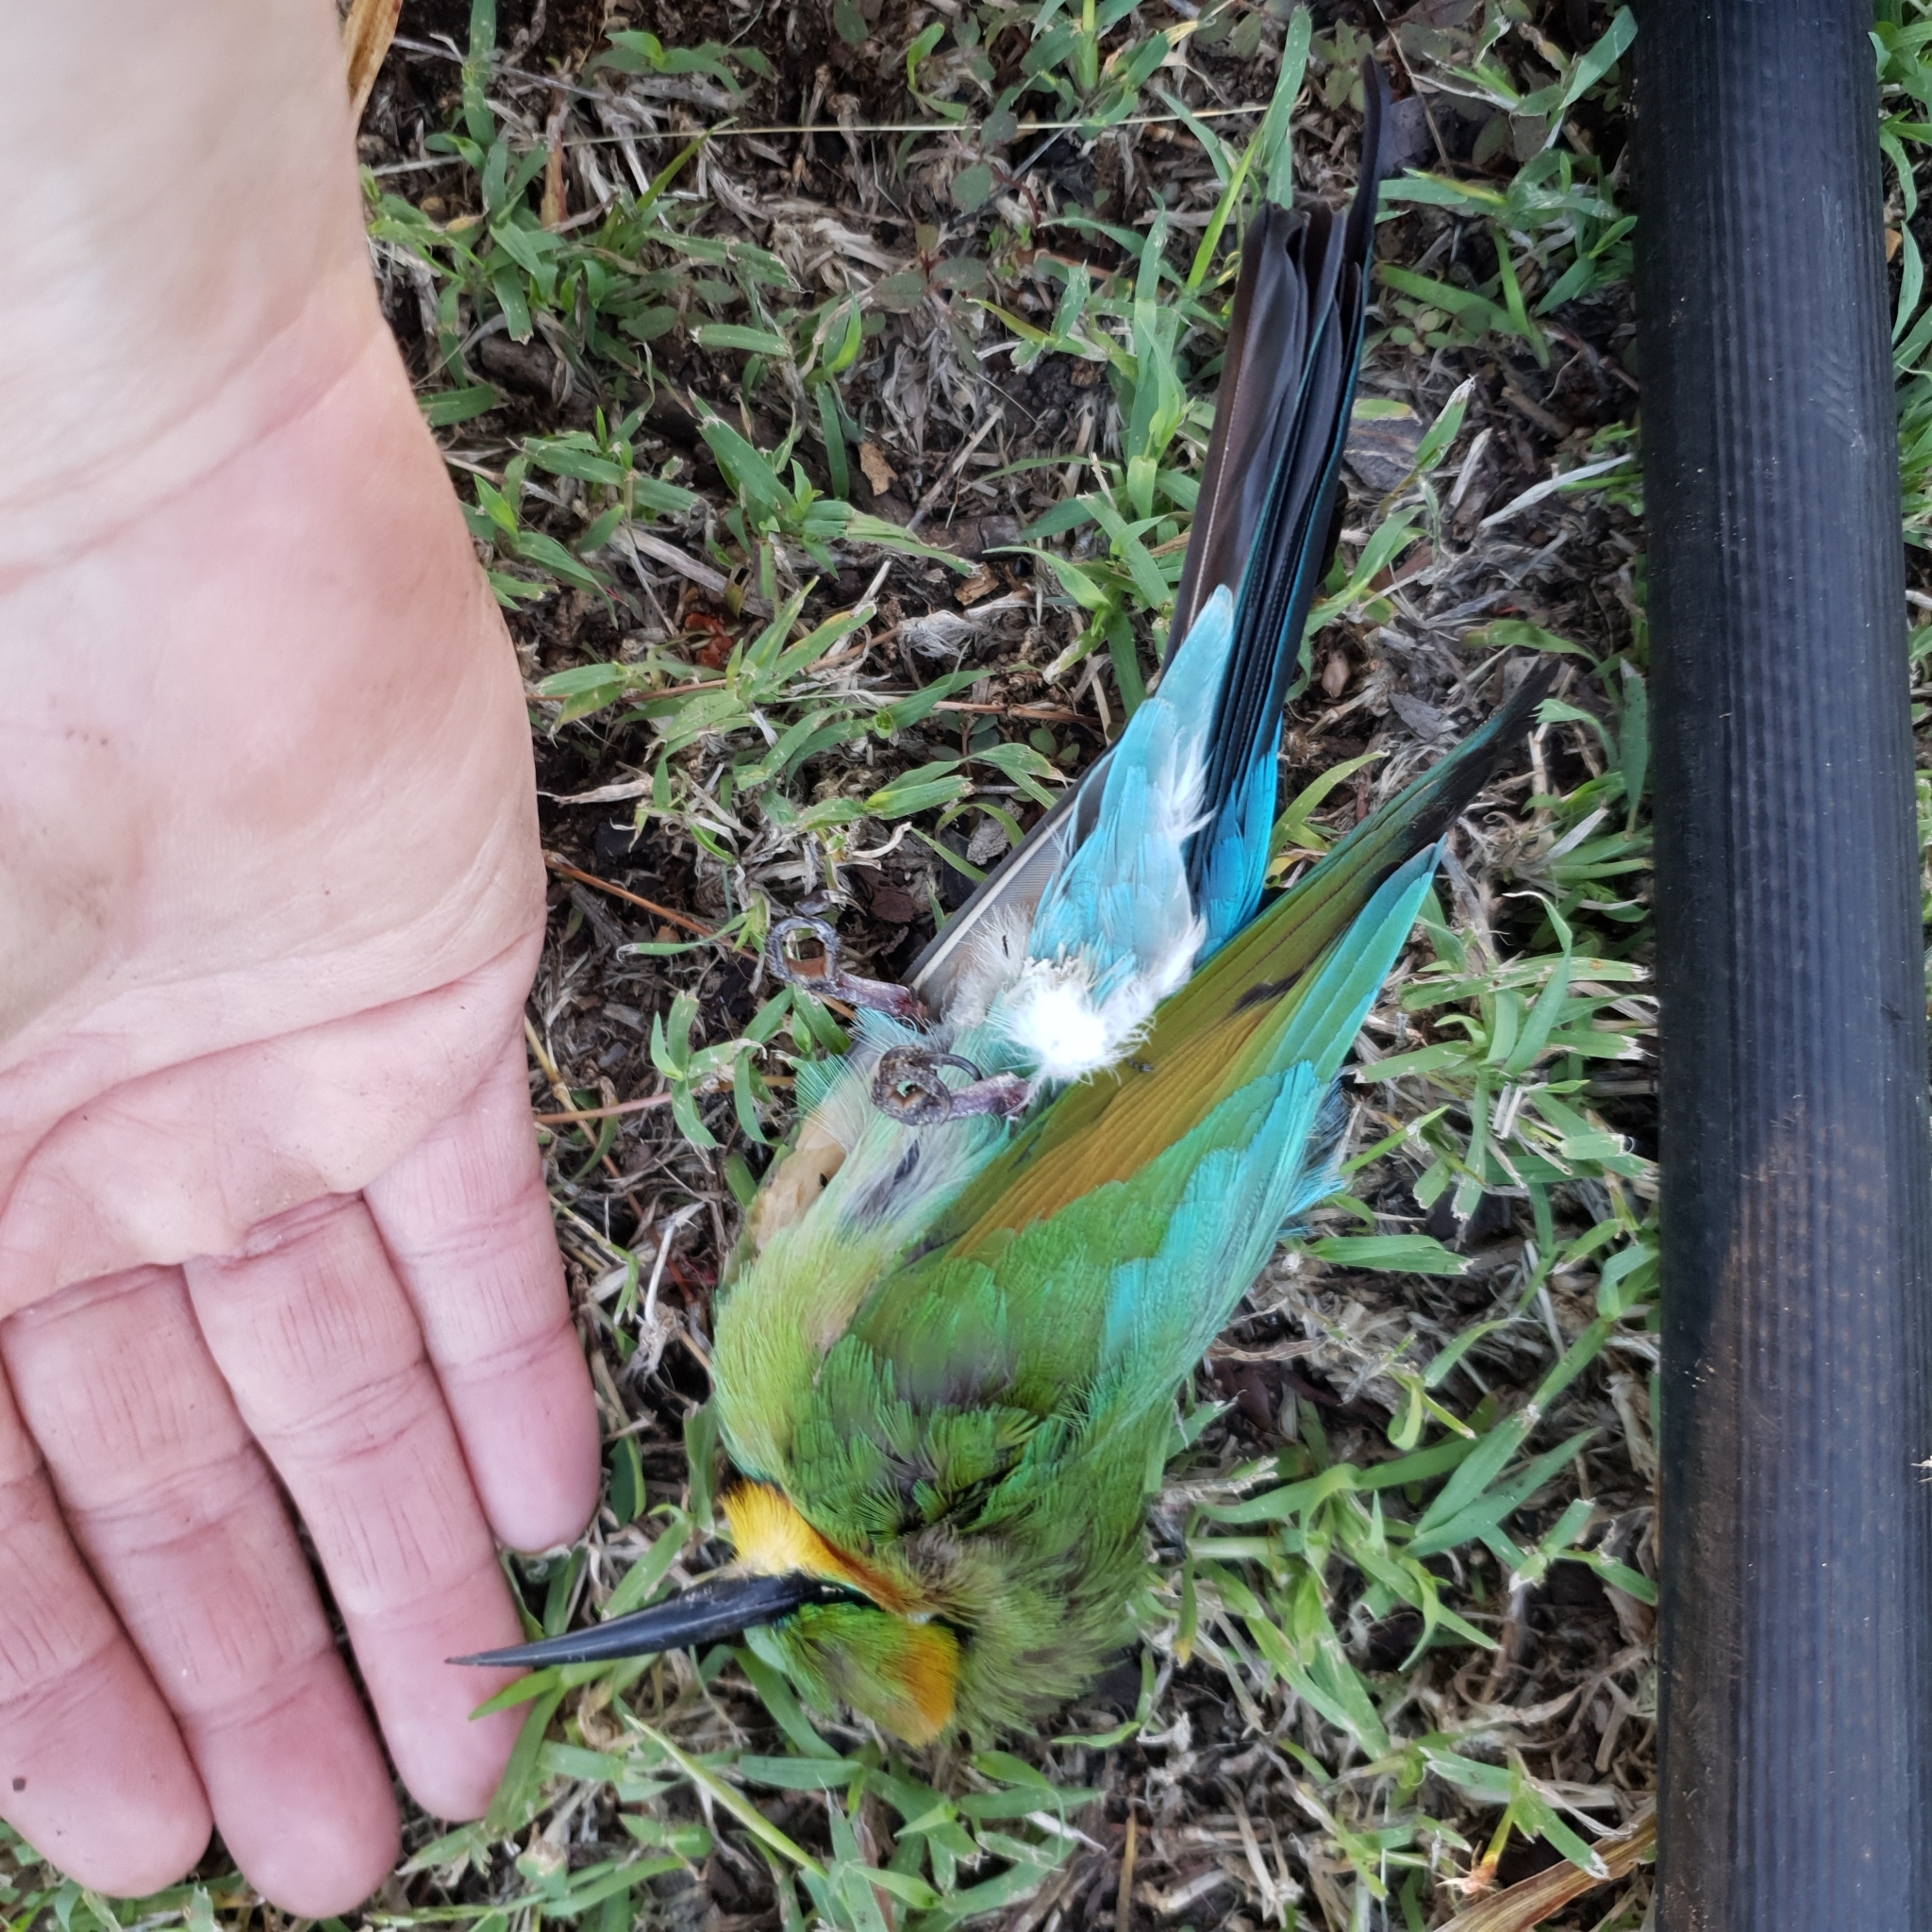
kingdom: Animalia
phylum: Chordata
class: Aves
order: Coraciiformes
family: Meropidae
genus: Merops
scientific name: Merops ornatus
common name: Rainbow bee-eater
